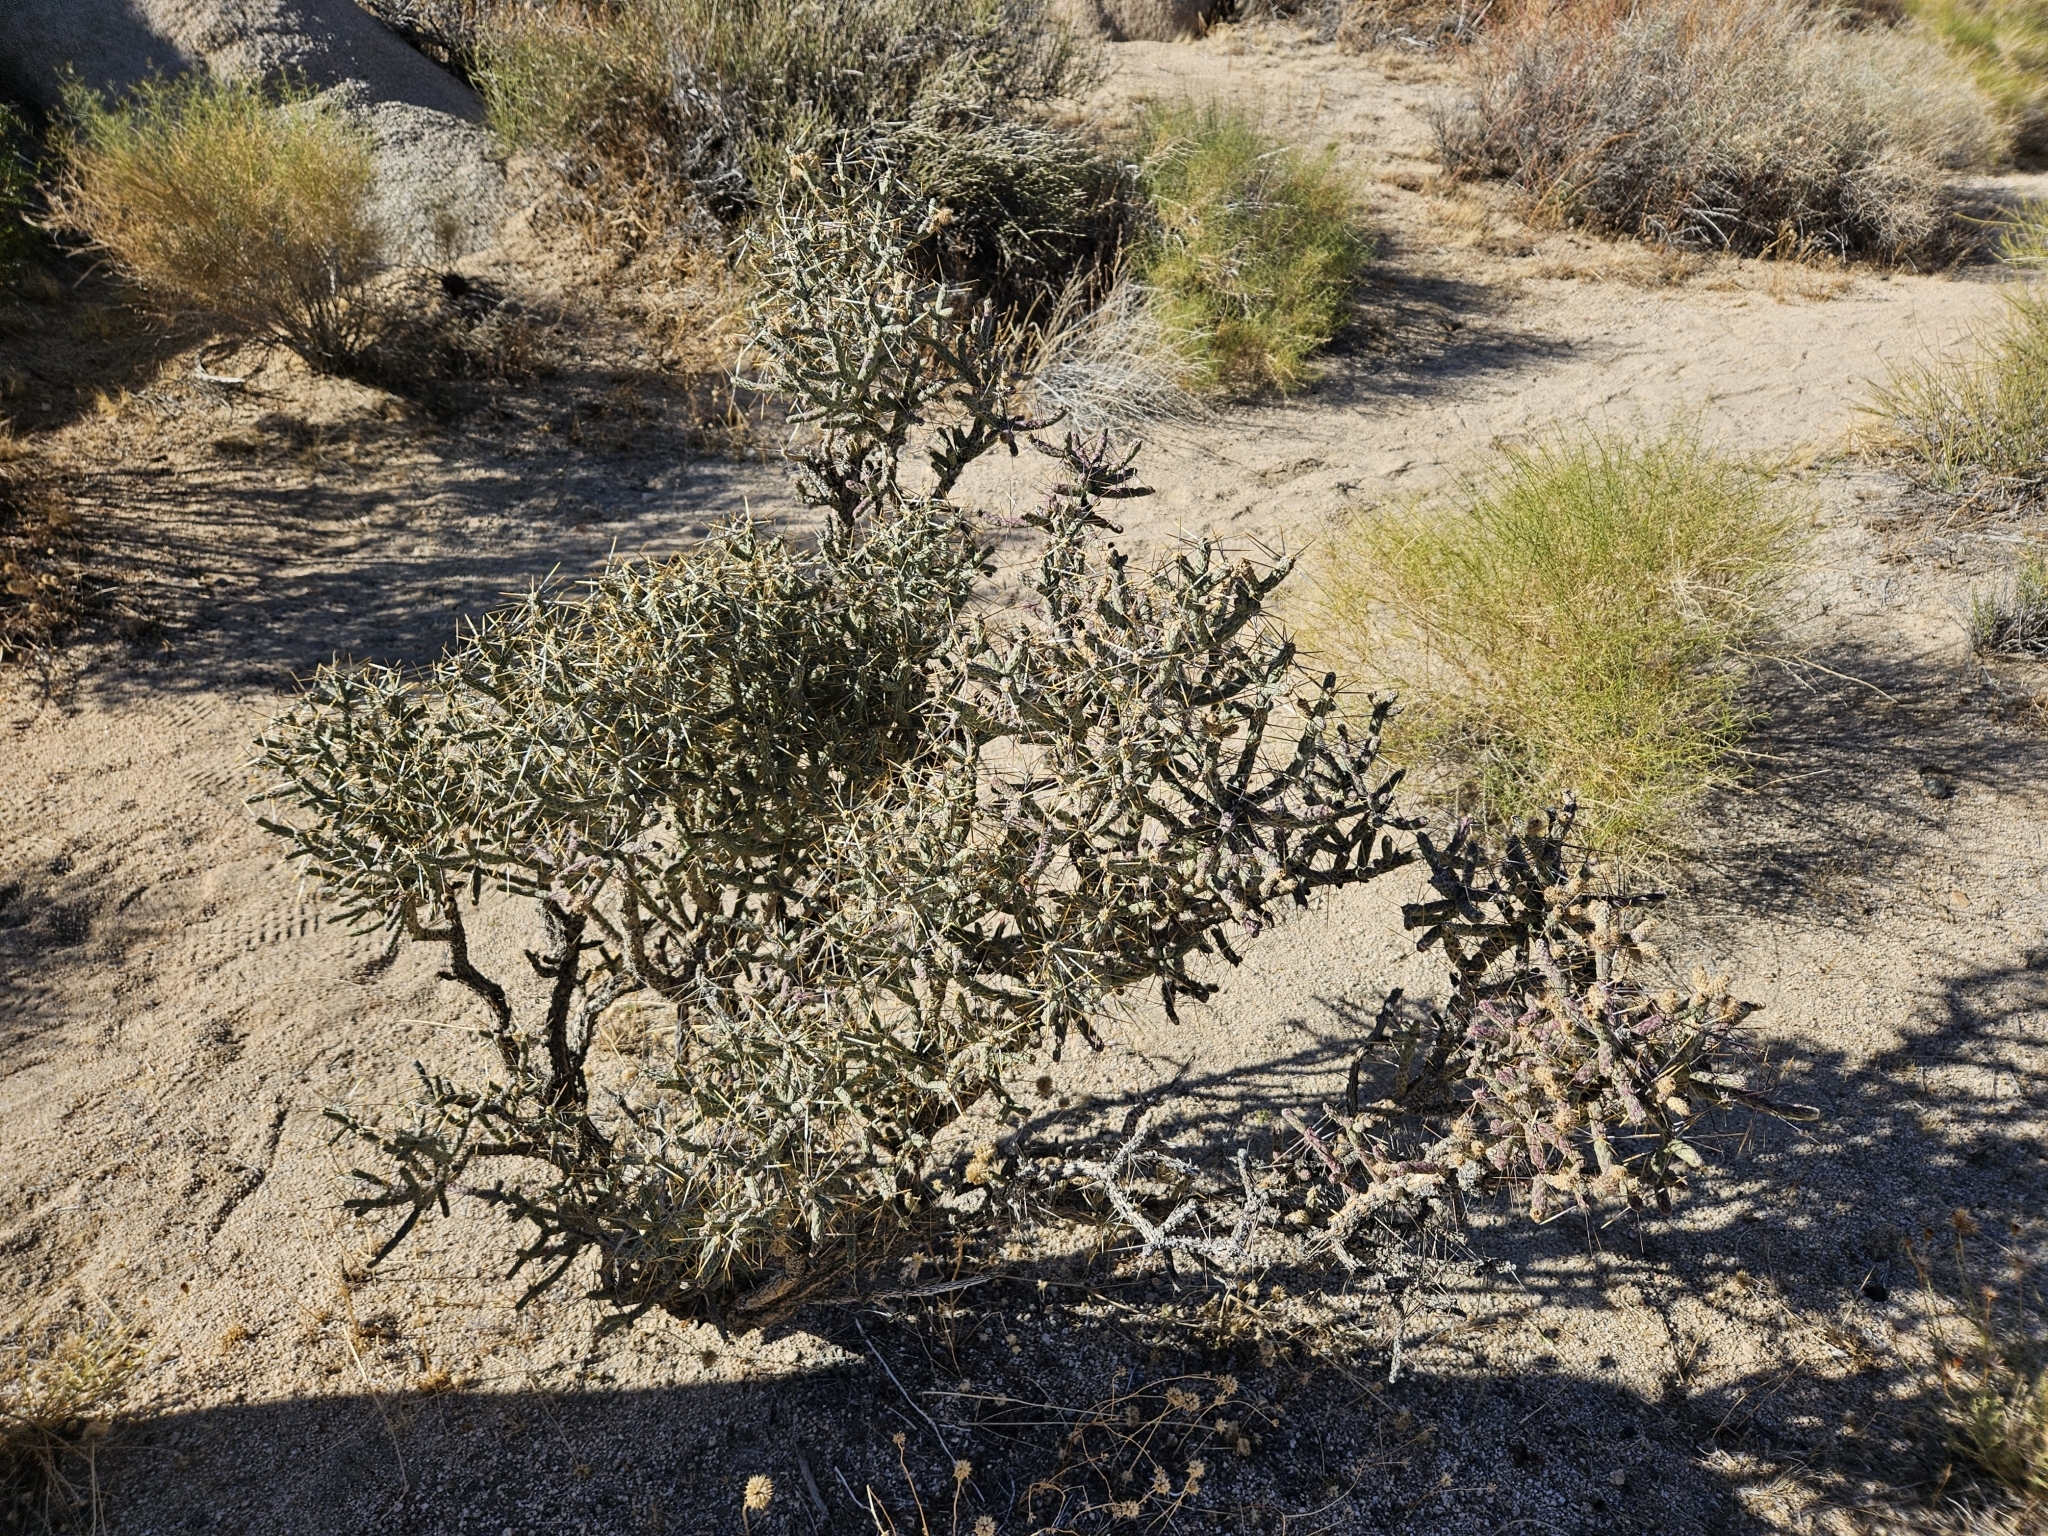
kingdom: Plantae
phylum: Tracheophyta
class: Magnoliopsida
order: Caryophyllales
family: Cactaceae
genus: Cylindropuntia
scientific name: Cylindropuntia ramosissima
